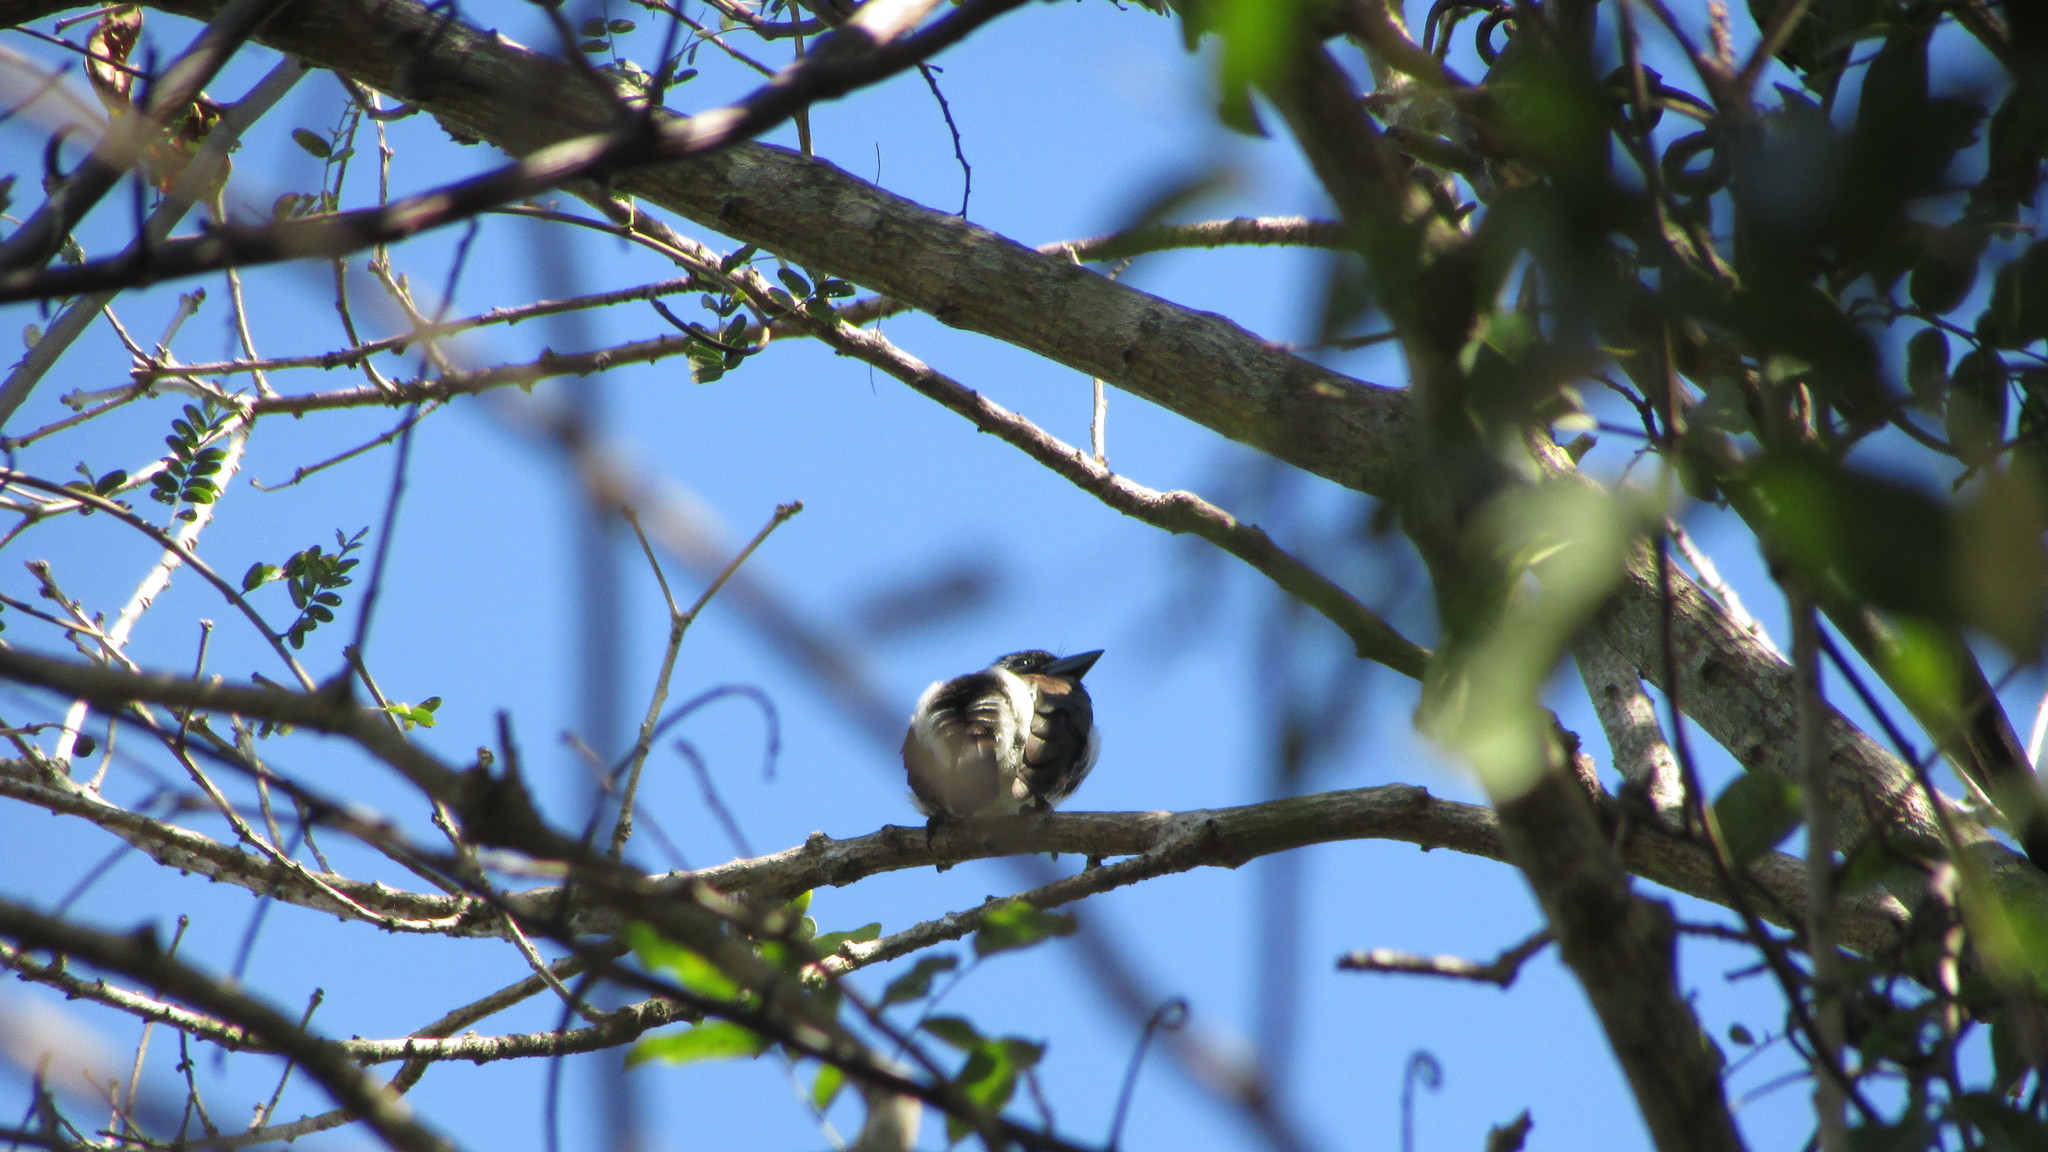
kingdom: Animalia
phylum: Chordata
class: Aves
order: Piciformes
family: Lybiidae
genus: Stactolaema
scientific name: Stactolaema leucotis
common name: White-eared barbet
